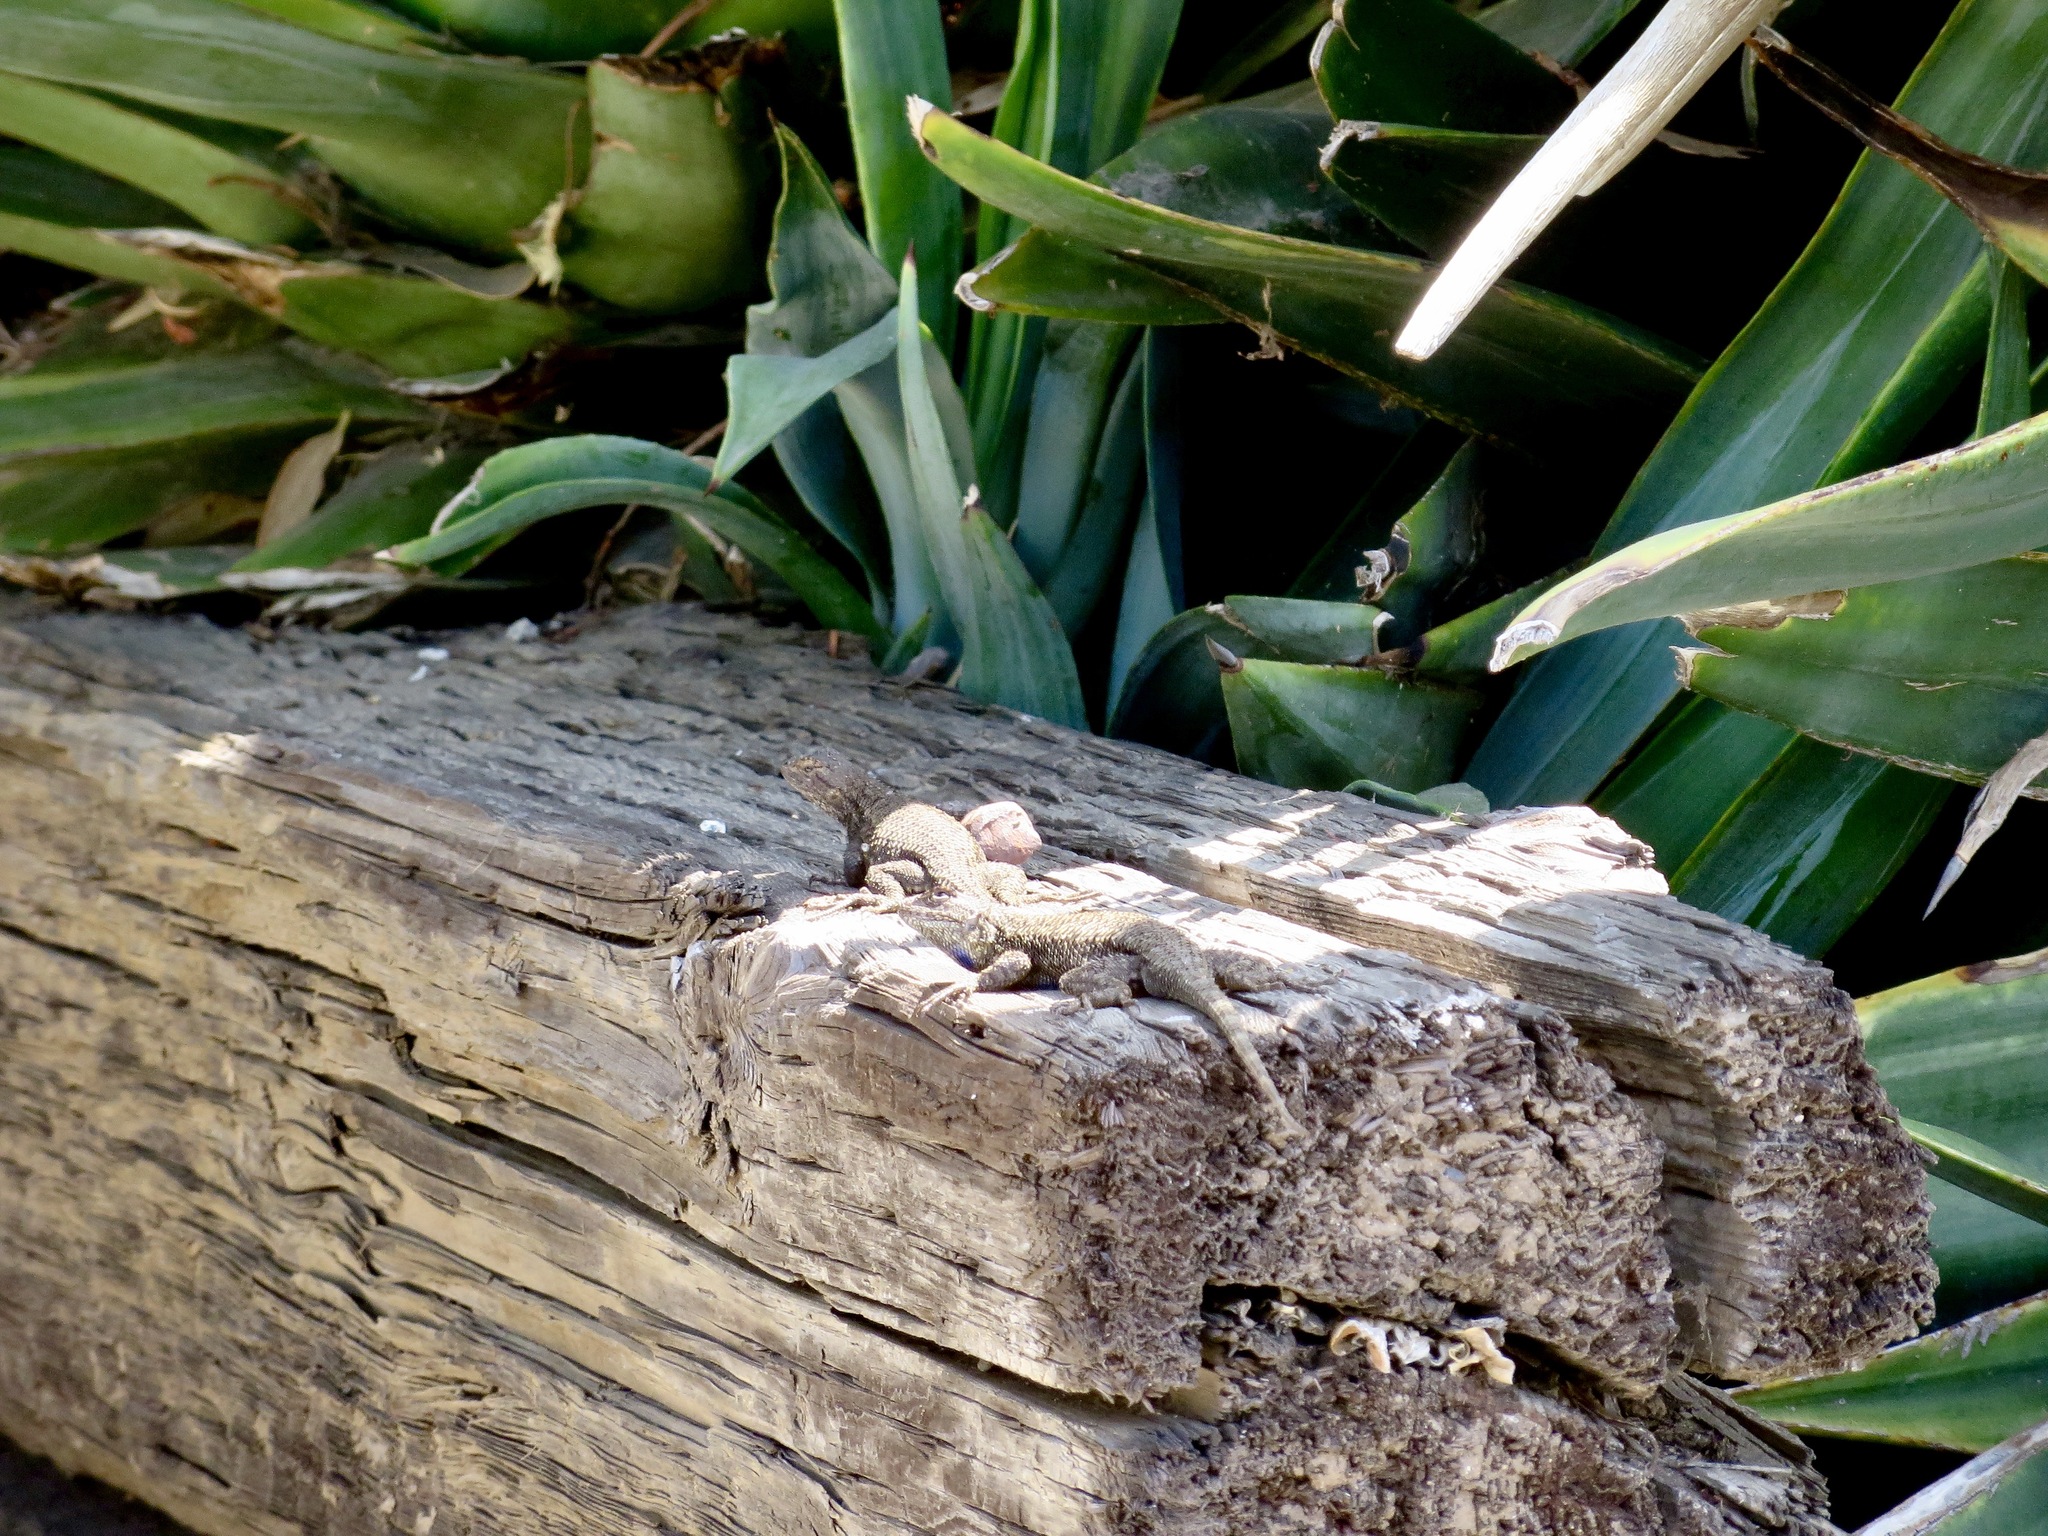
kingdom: Animalia
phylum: Chordata
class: Squamata
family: Phrynosomatidae
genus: Sceloporus
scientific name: Sceloporus occidentalis
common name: Western fence lizard
